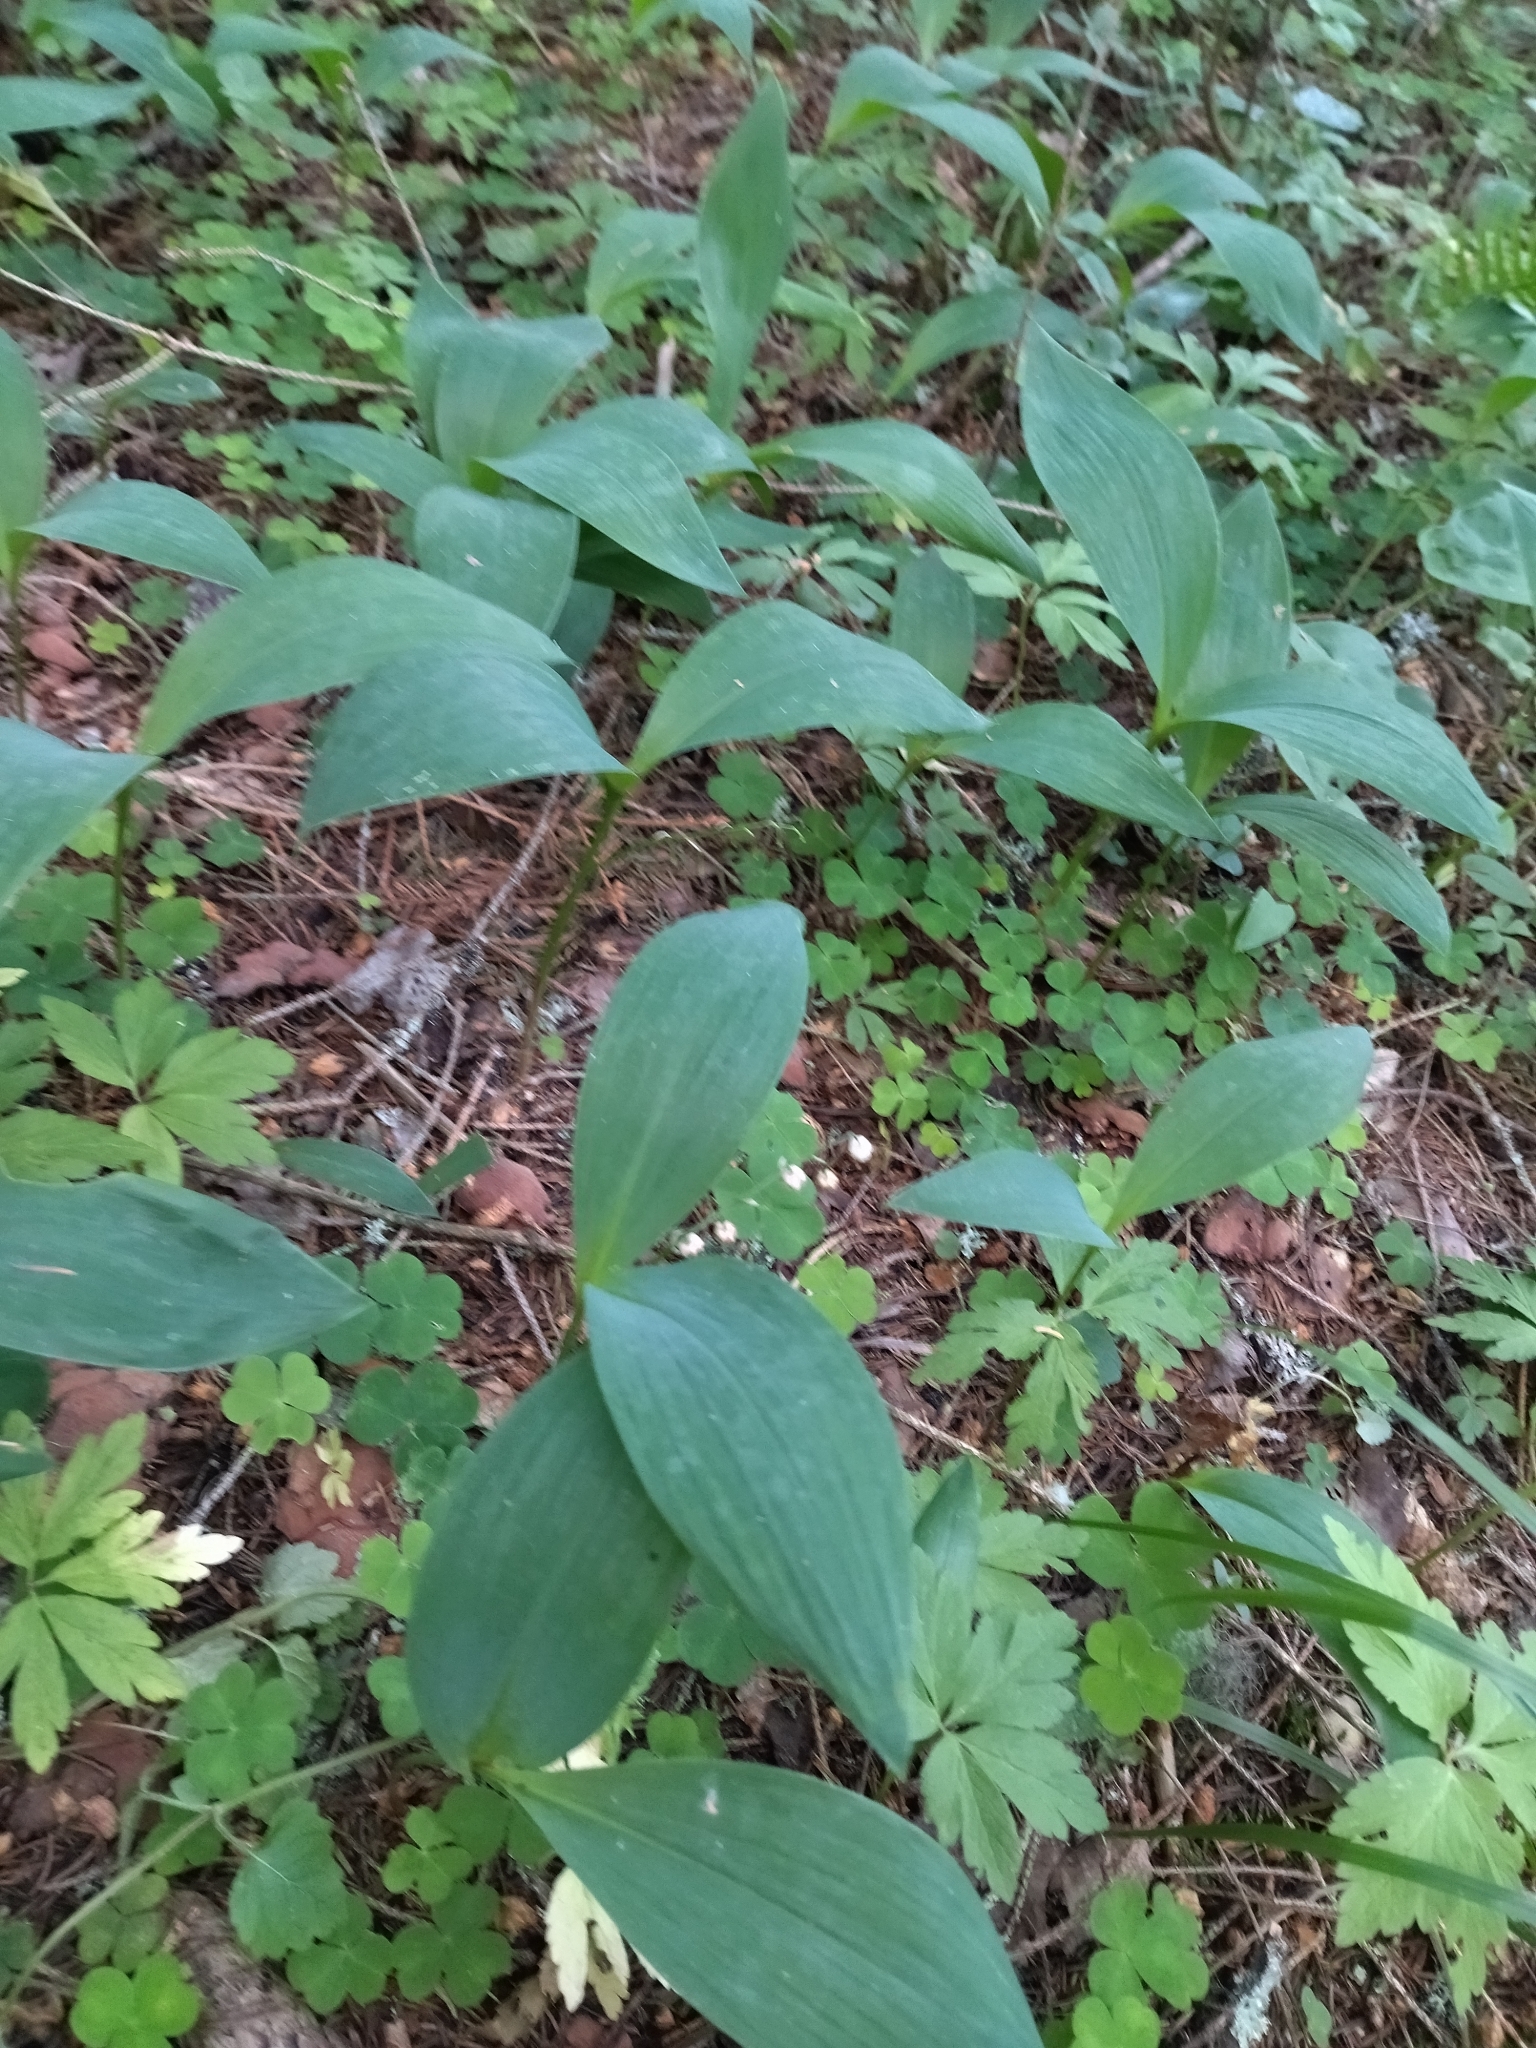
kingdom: Plantae
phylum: Tracheophyta
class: Liliopsida
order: Asparagales
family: Asparagaceae
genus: Convallaria
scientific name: Convallaria majalis
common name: Lily-of-the-valley
